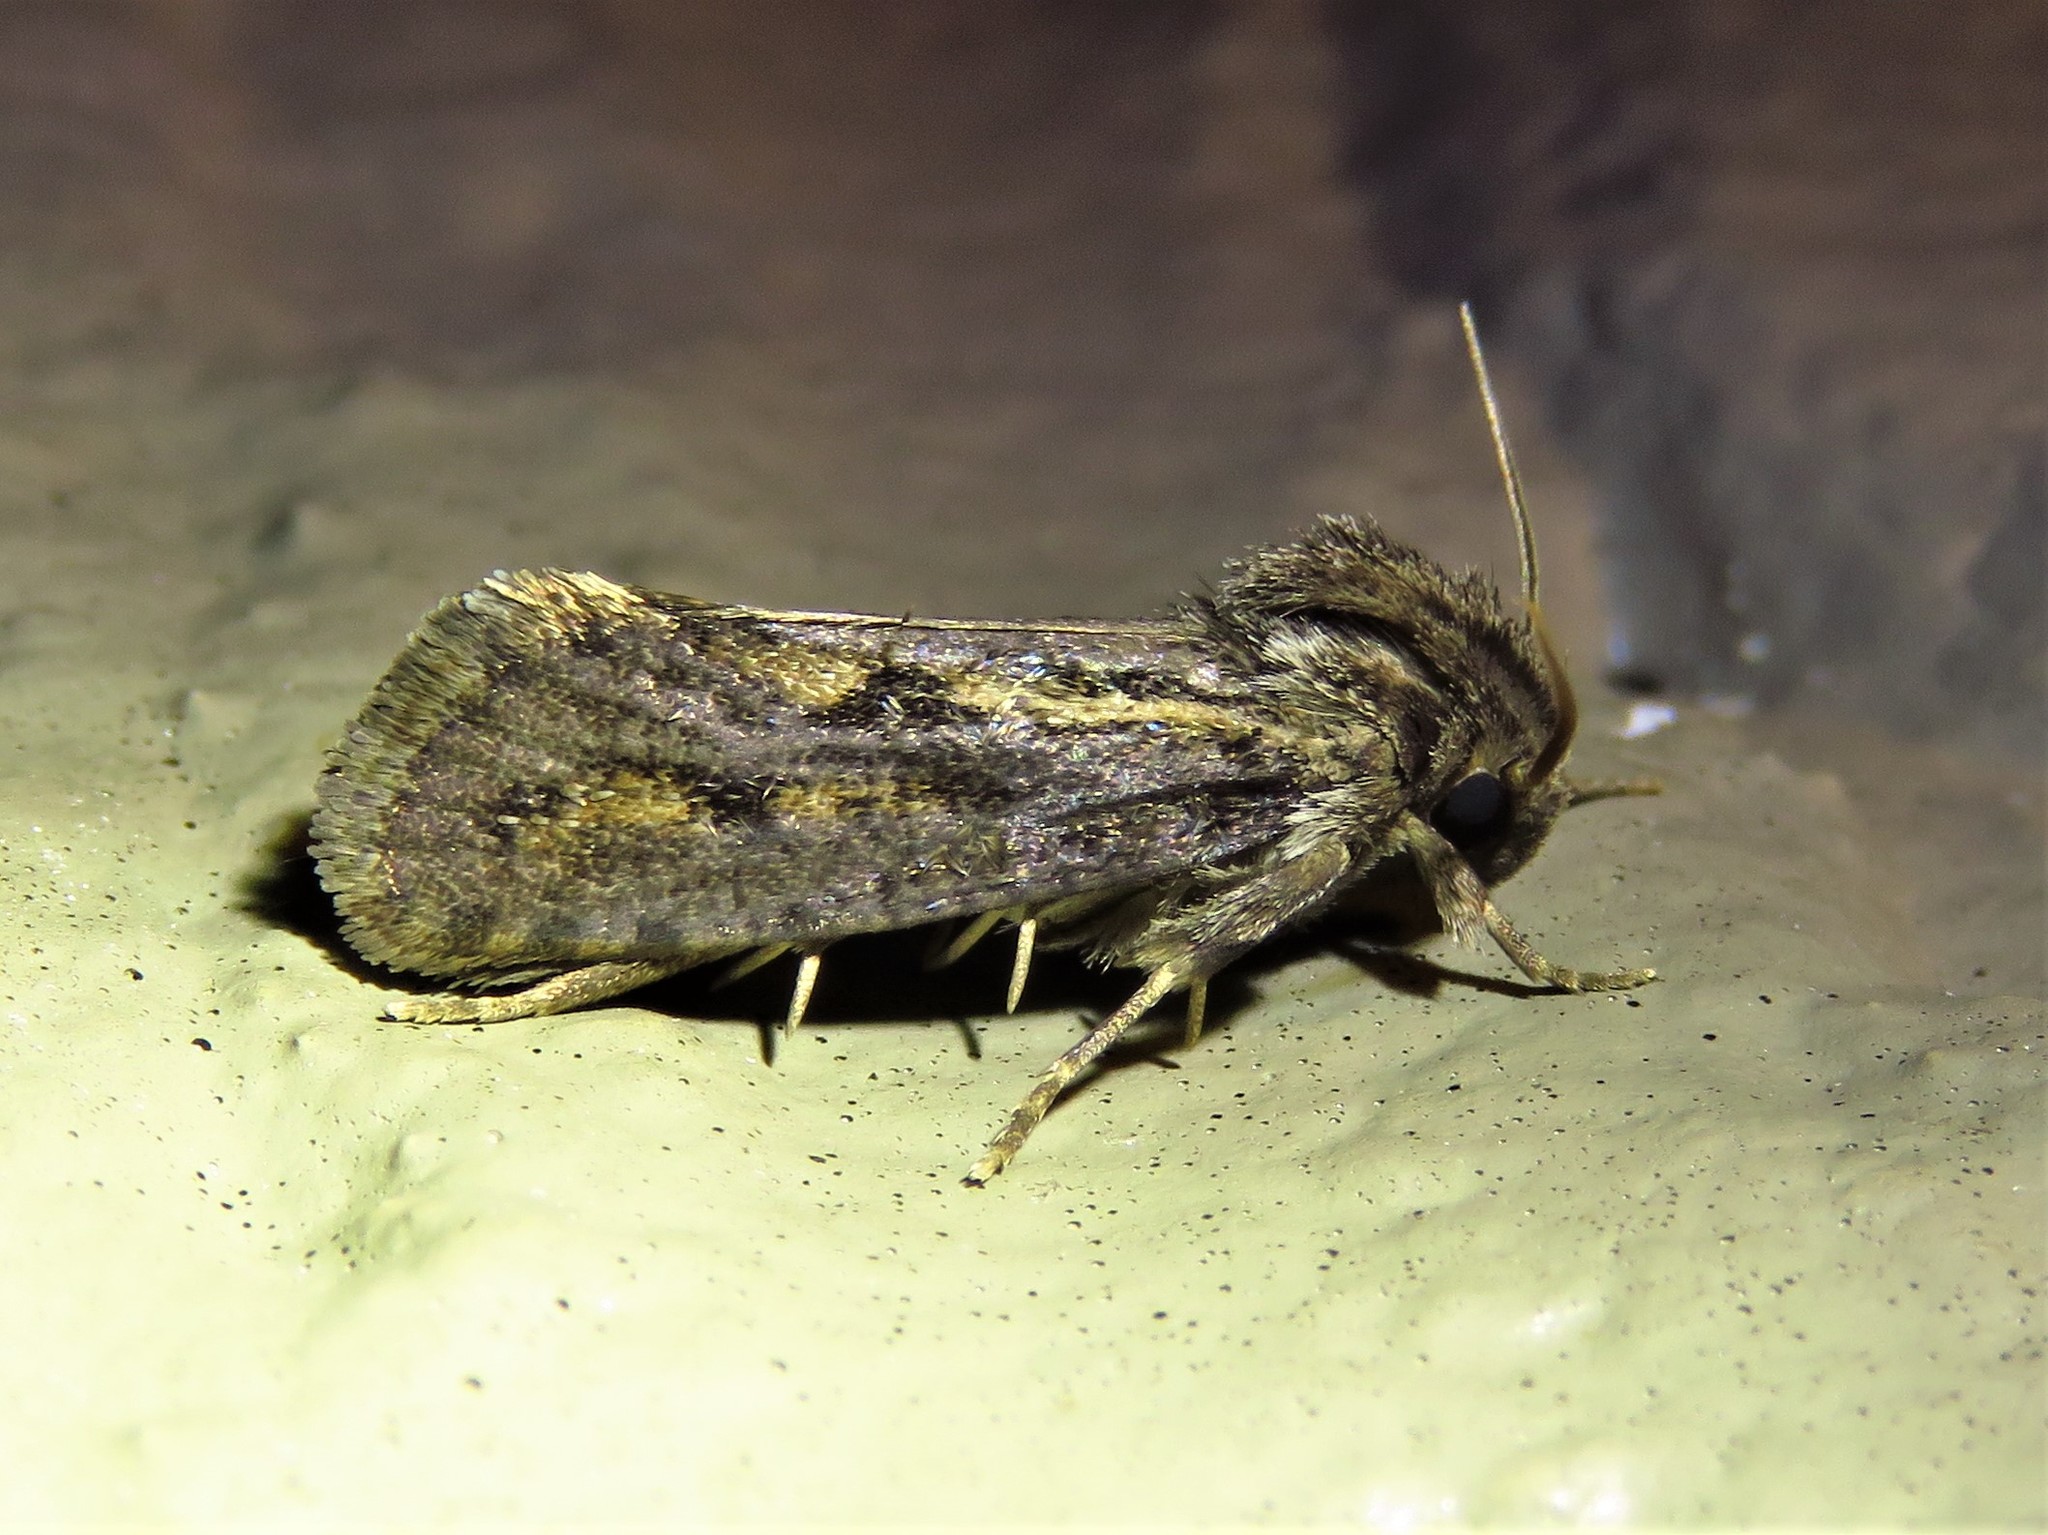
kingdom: Animalia
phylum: Arthropoda
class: Insecta
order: Lepidoptera
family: Tineidae
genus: Acrolophus
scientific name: Acrolophus popeanella
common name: Clemens' grass tubeworm moth
